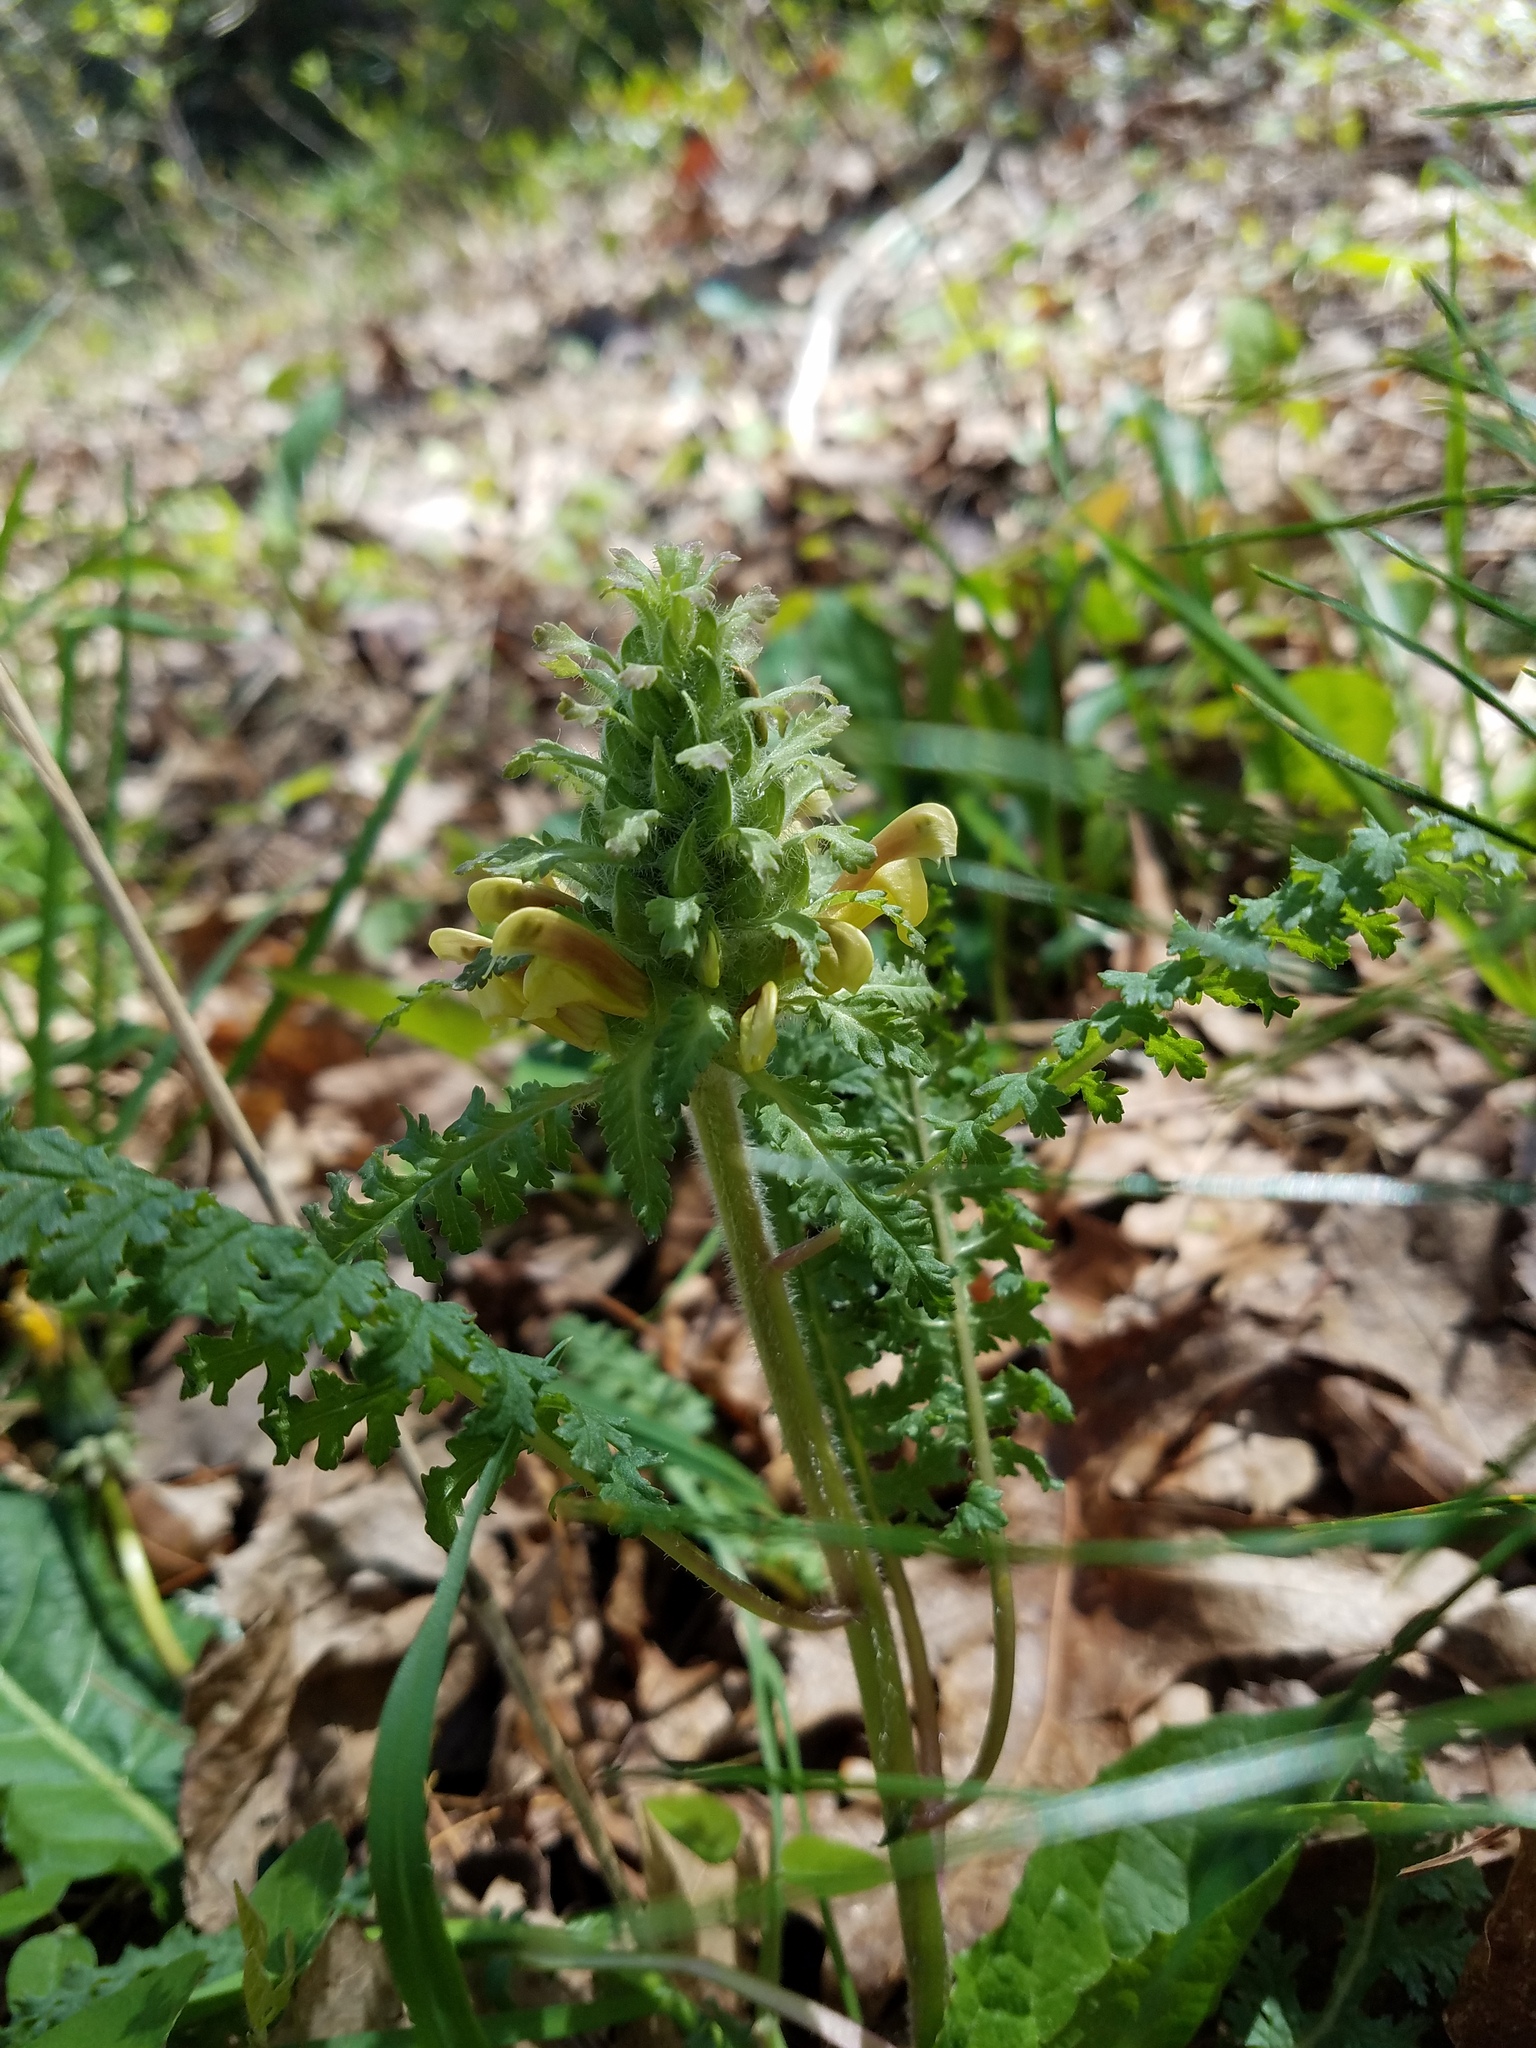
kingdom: Plantae
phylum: Tracheophyta
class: Magnoliopsida
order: Lamiales
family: Orobanchaceae
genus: Pedicularis
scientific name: Pedicularis canadensis
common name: Early lousewort
